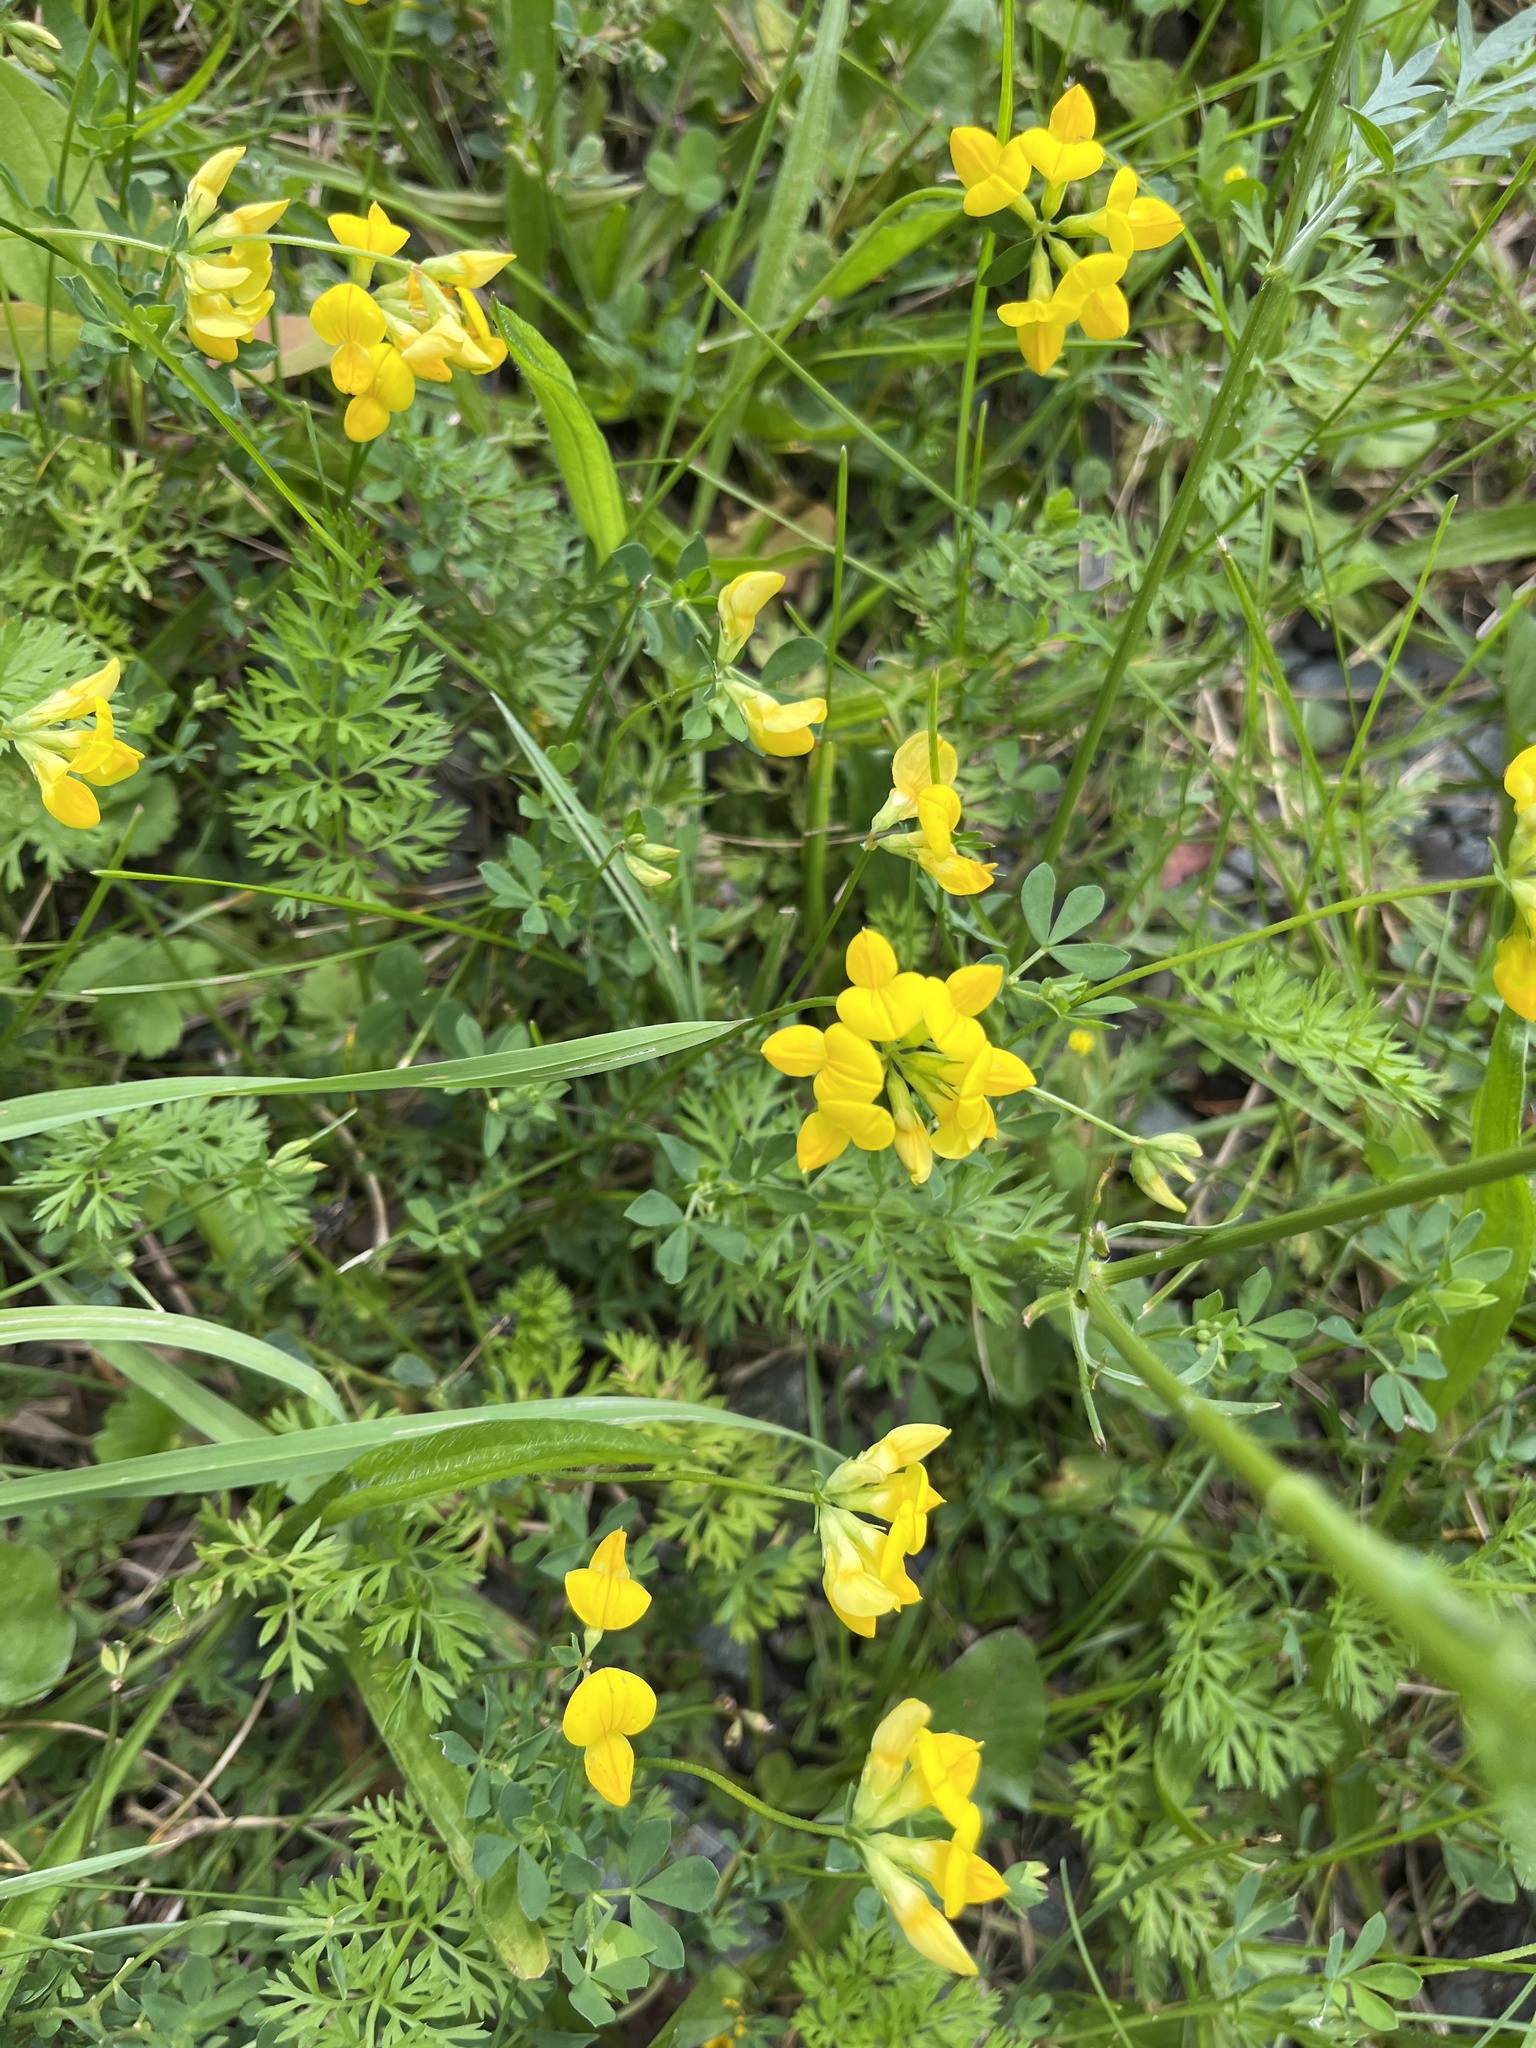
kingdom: Plantae
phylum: Tracheophyta
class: Magnoliopsida
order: Fabales
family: Fabaceae
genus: Lotus
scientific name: Lotus corniculatus
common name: Common bird's-foot-trefoil
